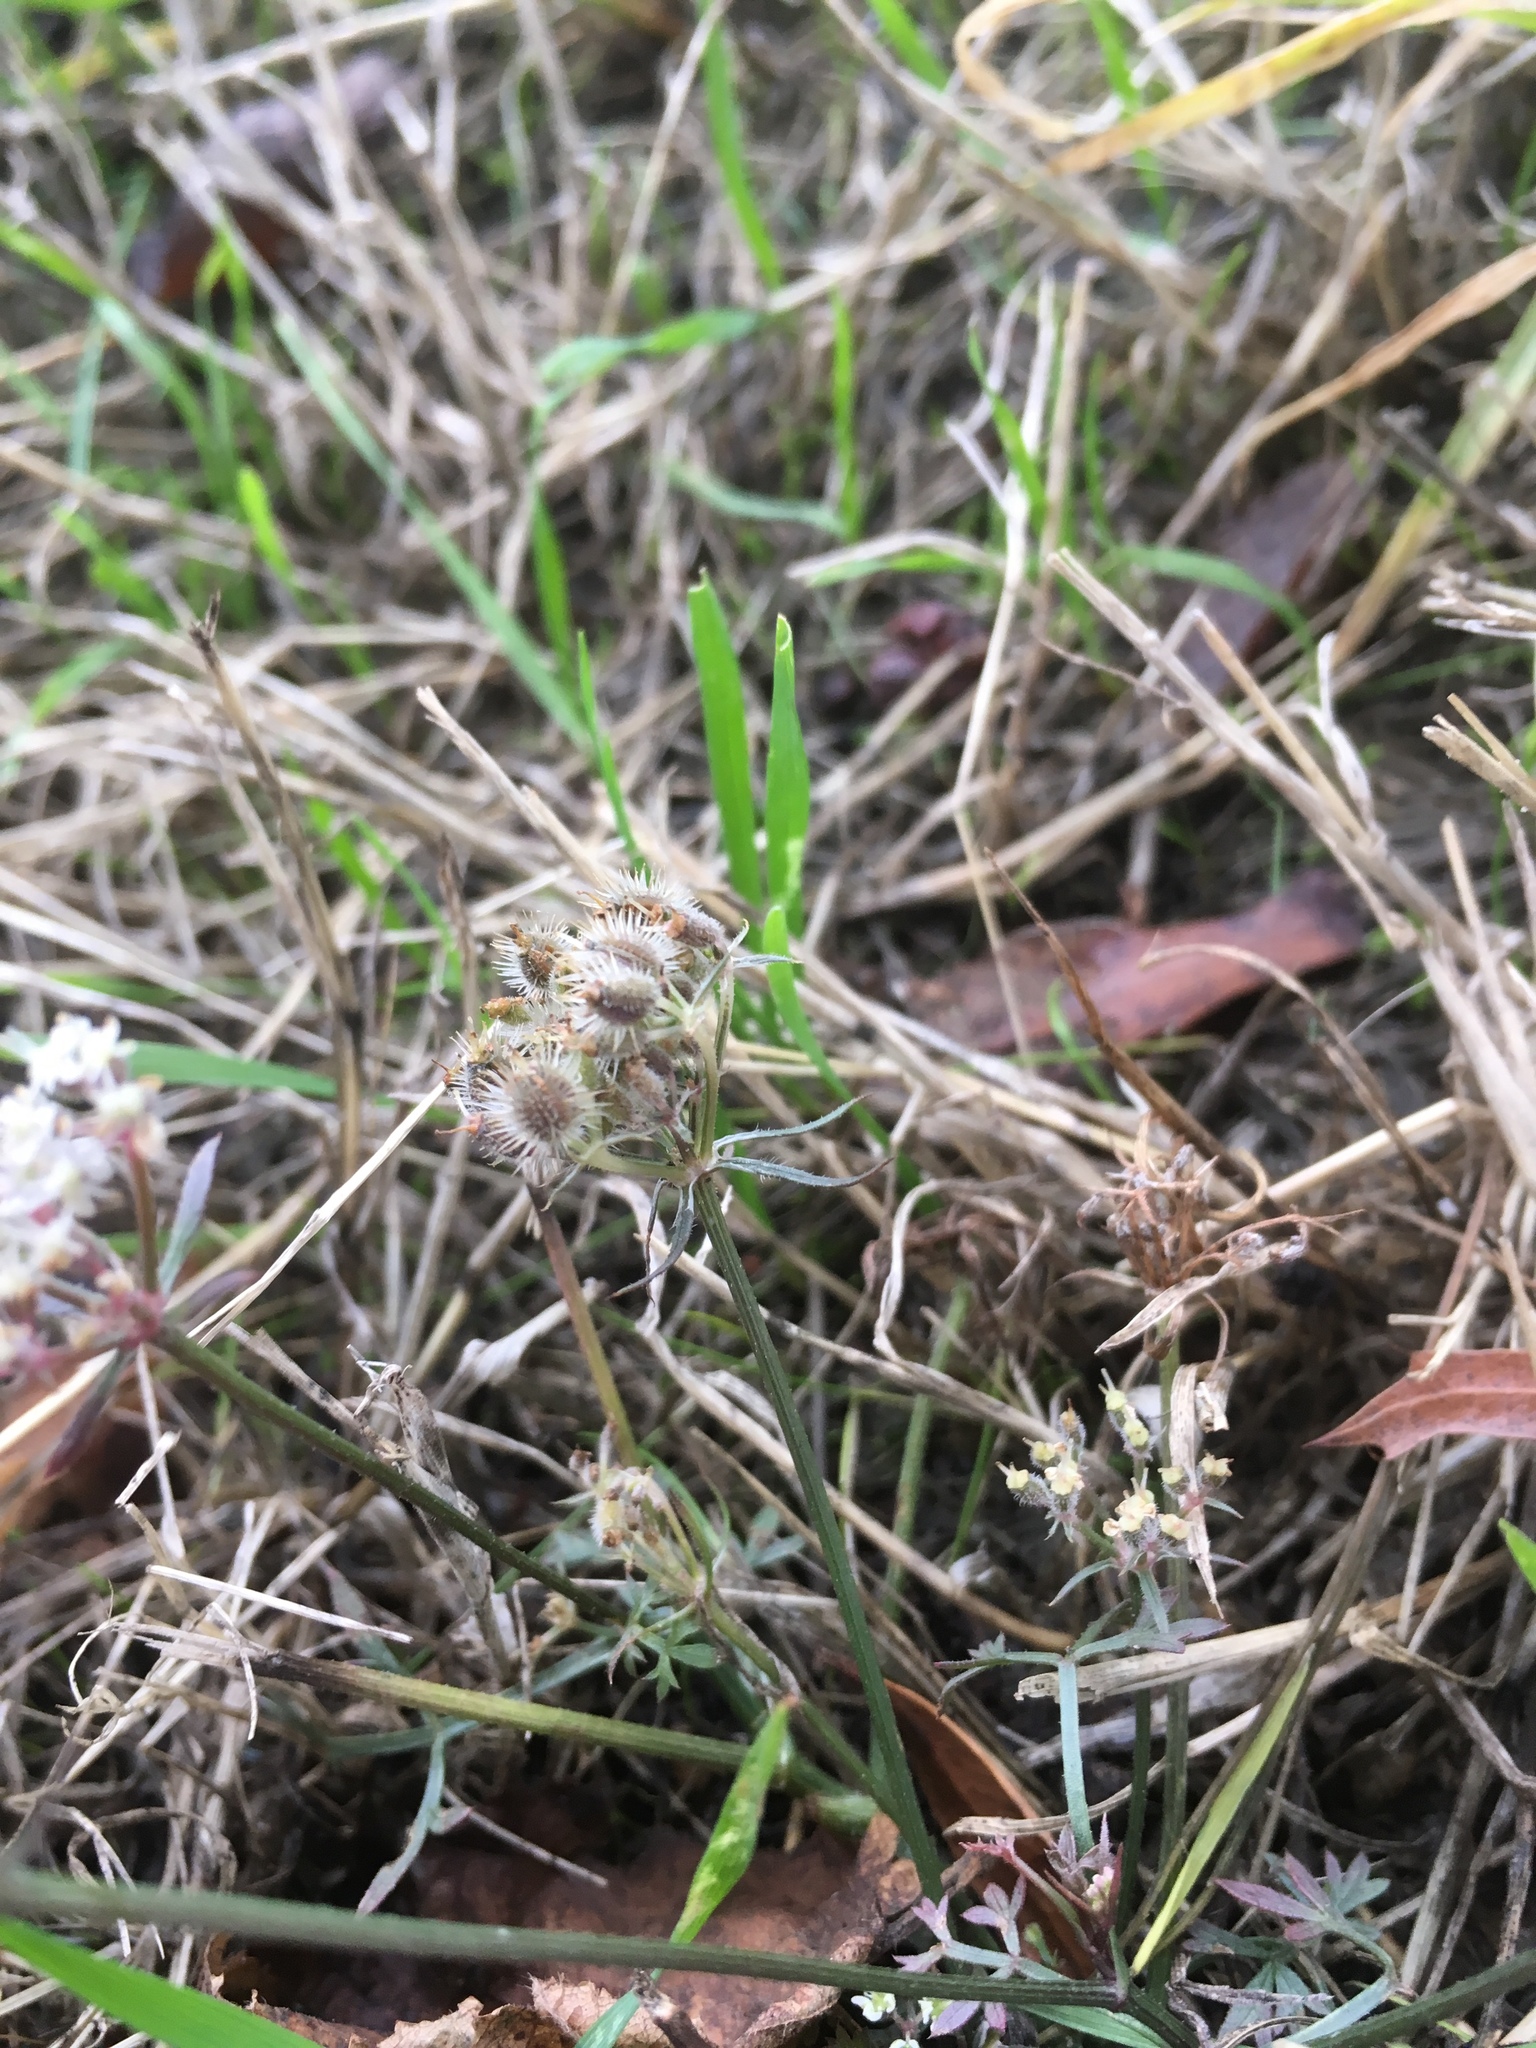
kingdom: Plantae
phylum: Tracheophyta
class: Magnoliopsida
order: Apiales
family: Apiaceae
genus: Daucus
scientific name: Daucus carota
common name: Wild carrot
